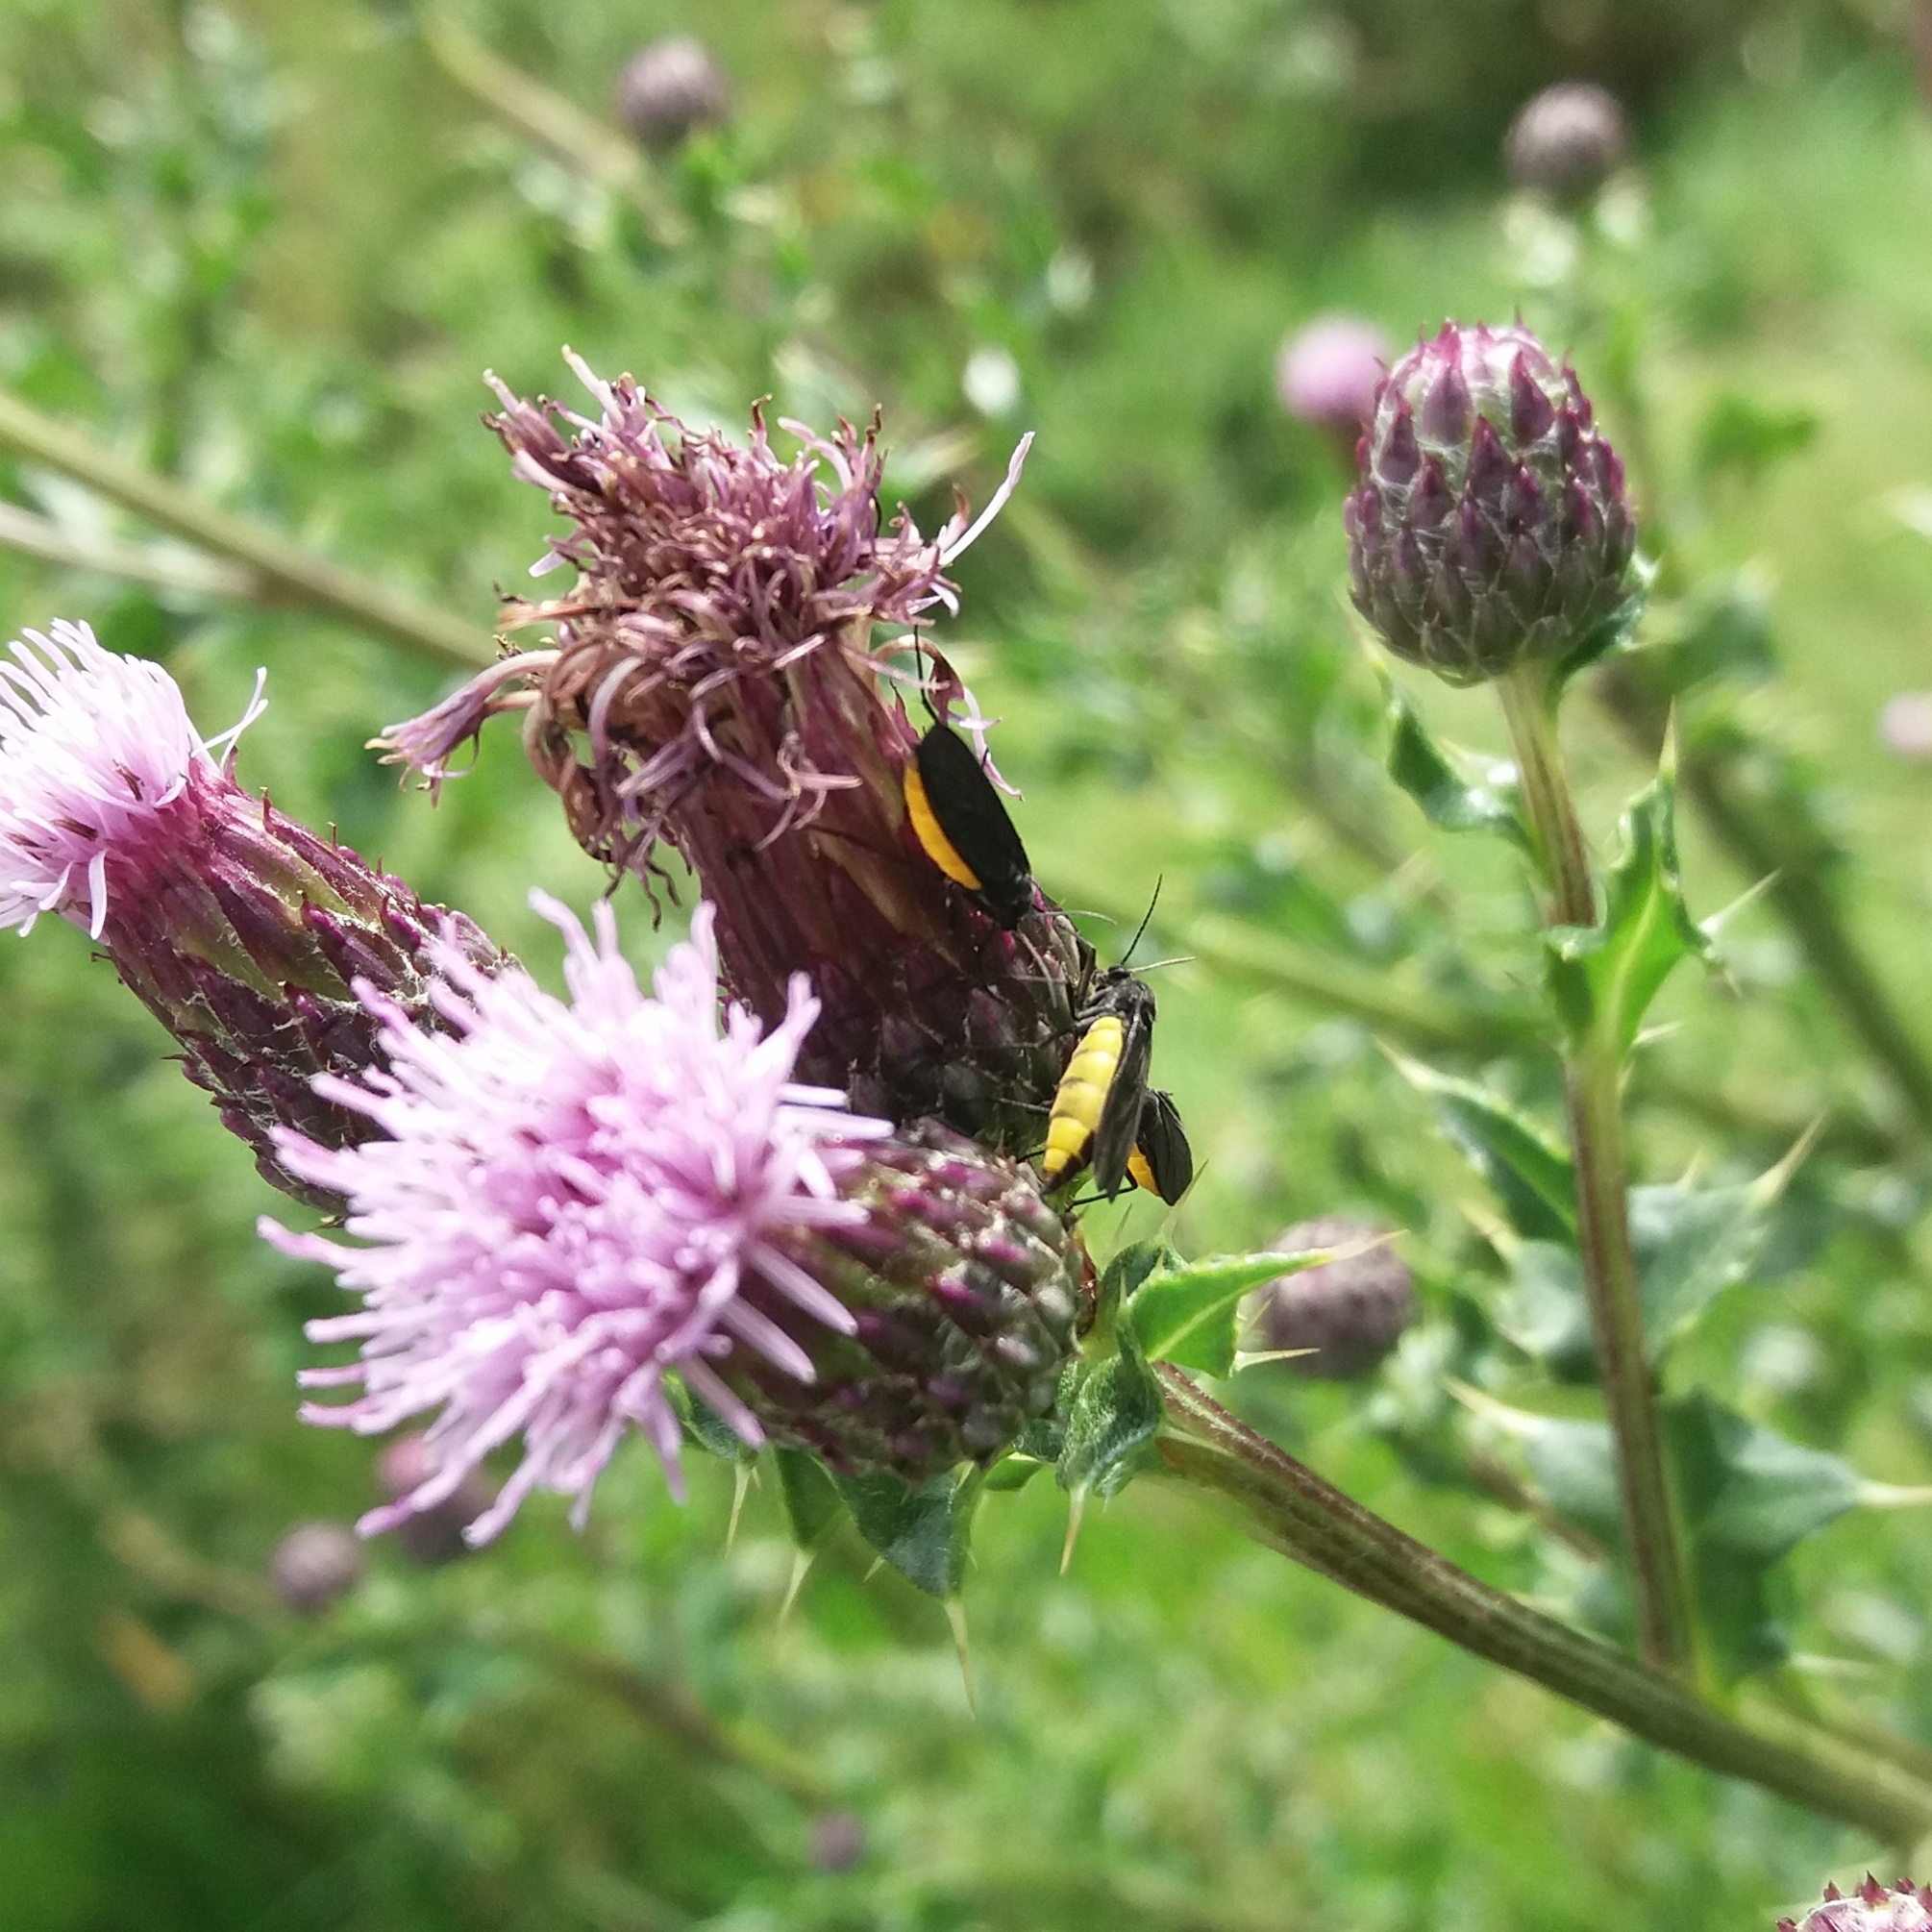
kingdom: Animalia
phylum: Arthropoda
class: Insecta
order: Diptera
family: Sciaridae
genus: Sciara
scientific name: Sciara hemerobioides
